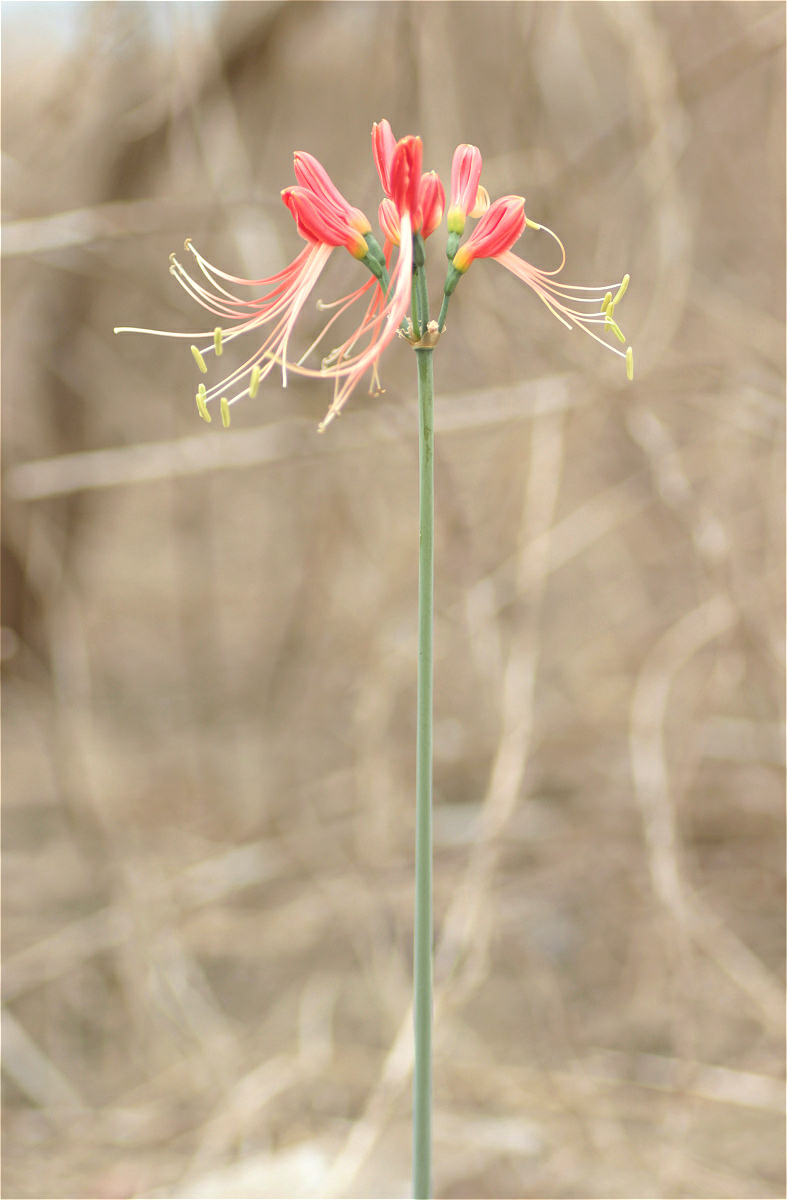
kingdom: Plantae
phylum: Tracheophyta
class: Liliopsida
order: Asparagales
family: Amaryllidaceae
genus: Eucrosia
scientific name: Eucrosia bicolor
